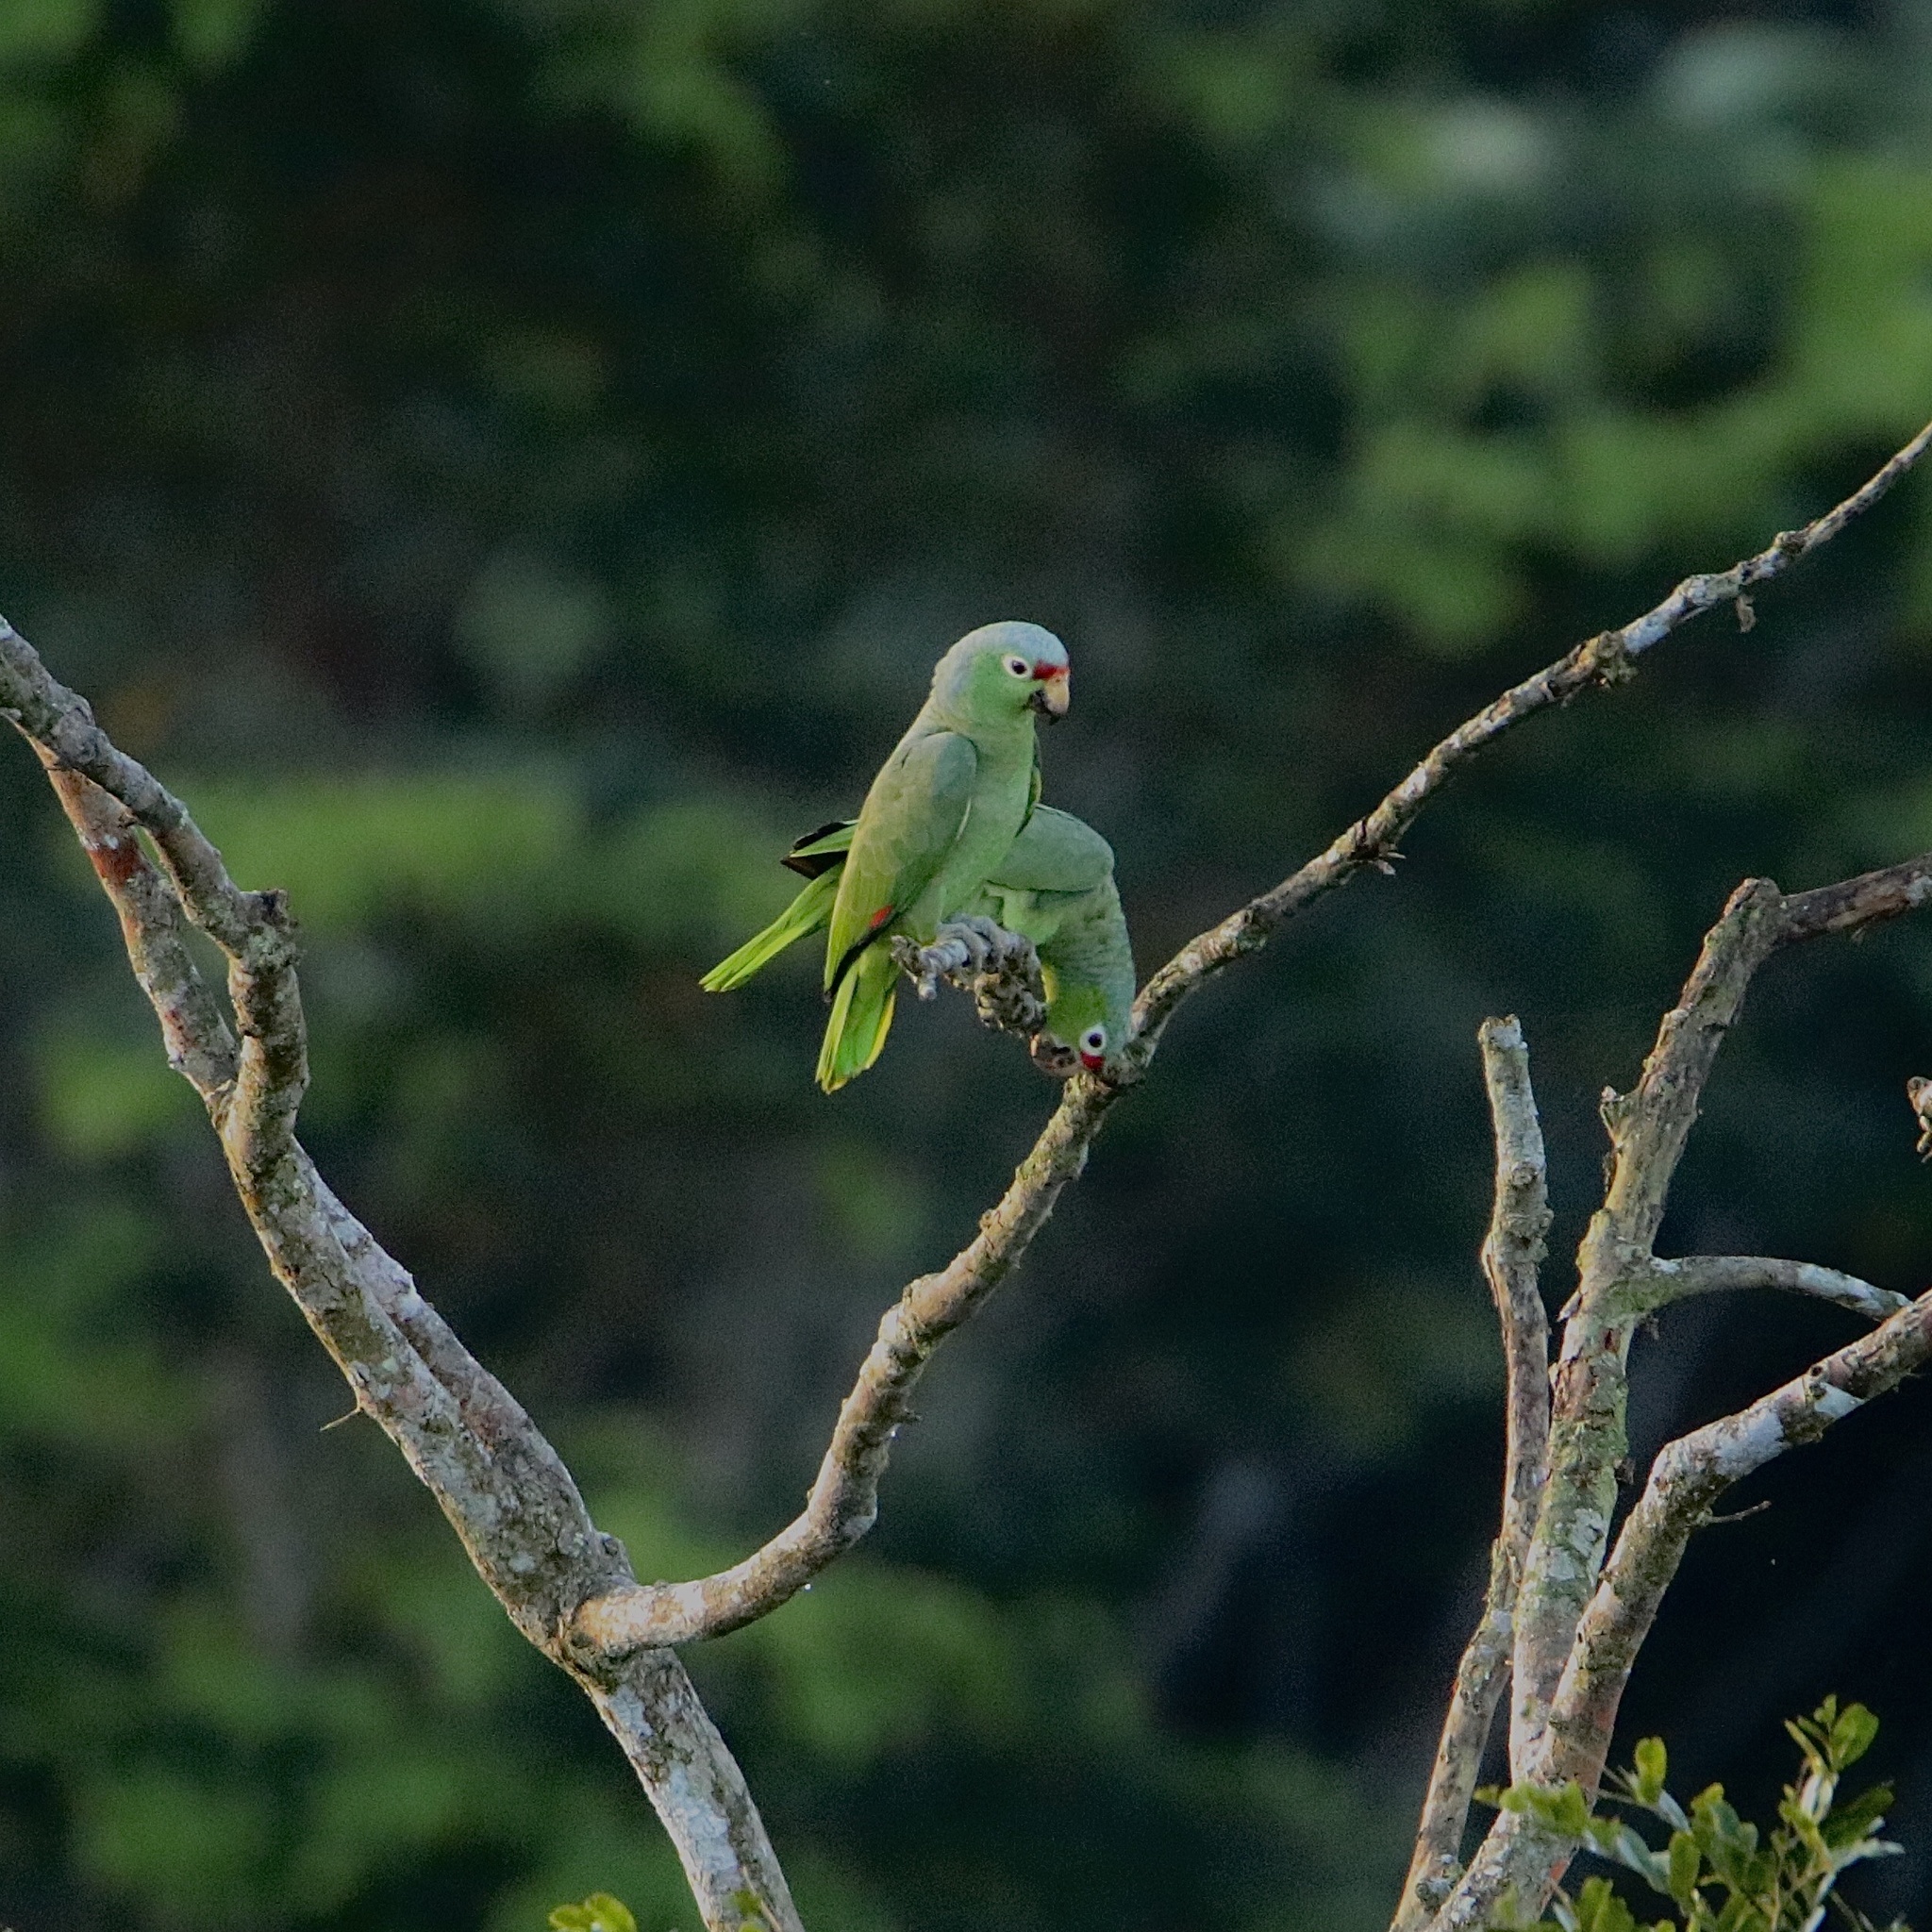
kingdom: Animalia
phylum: Chordata
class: Aves
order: Psittaciformes
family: Psittacidae
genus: Amazona
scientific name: Amazona autumnalis
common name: Red-lored amazon
